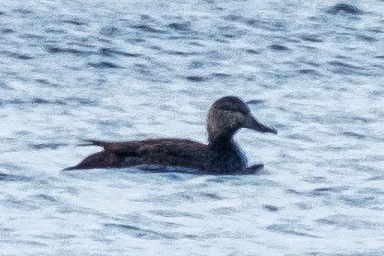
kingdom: Animalia
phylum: Chordata
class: Aves
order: Anseriformes
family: Anatidae
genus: Anas
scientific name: Anas rubripes
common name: American black duck
